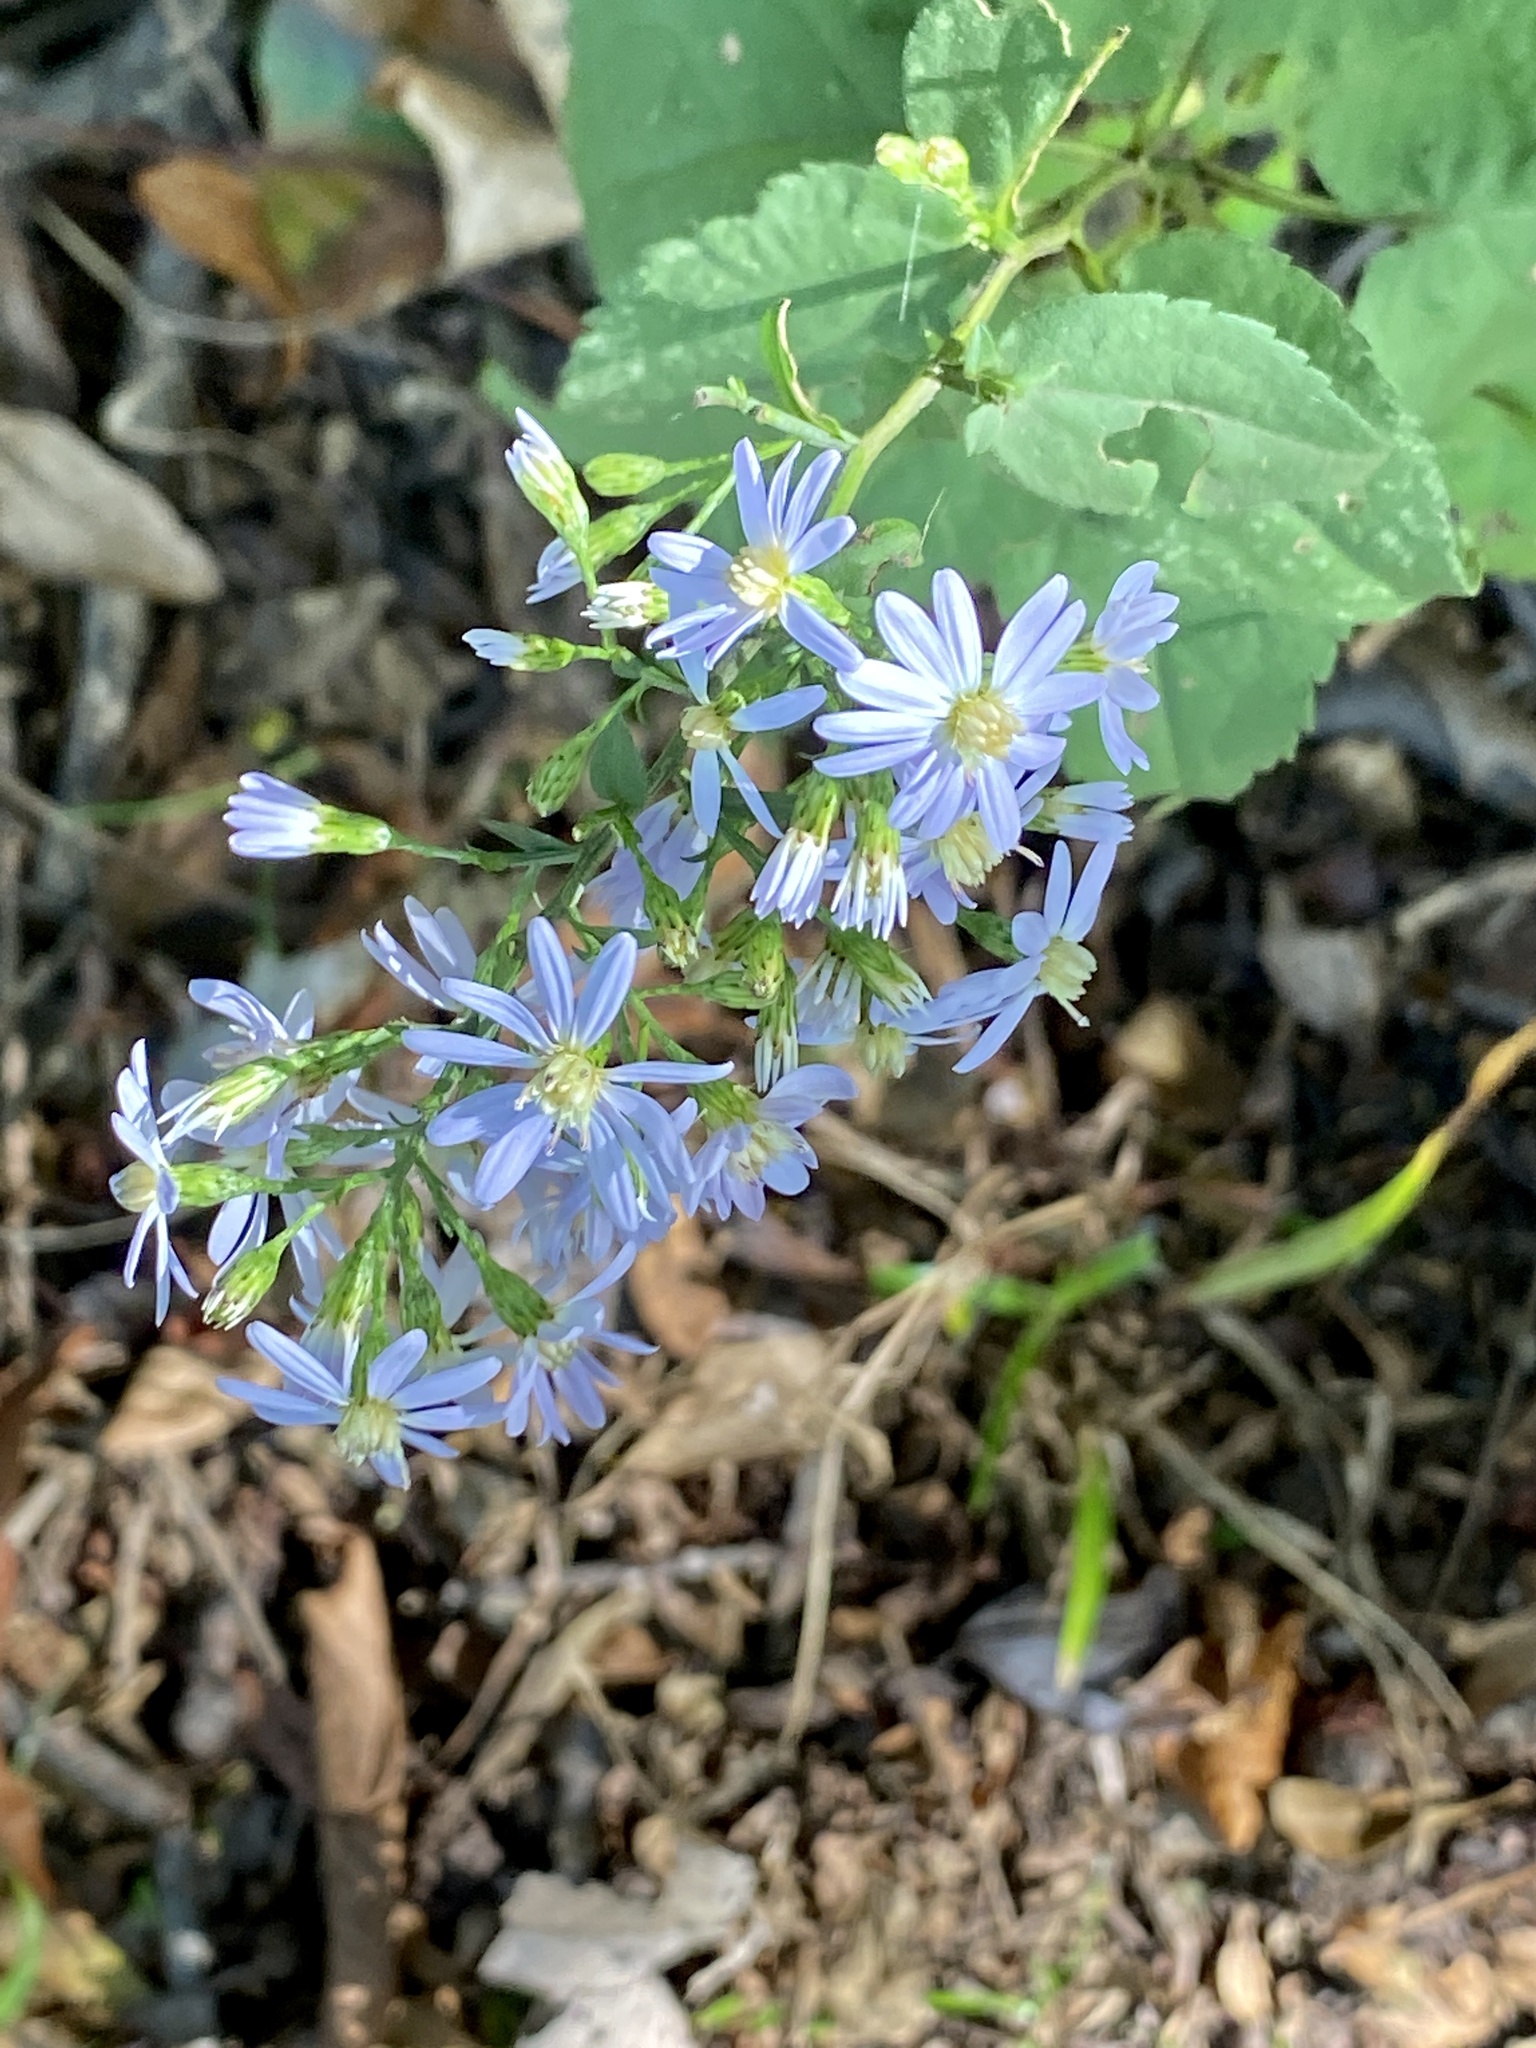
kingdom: Plantae
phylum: Tracheophyta
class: Magnoliopsida
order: Asterales
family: Asteraceae
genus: Symphyotrichum
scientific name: Symphyotrichum cordifolium
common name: Beeweed
